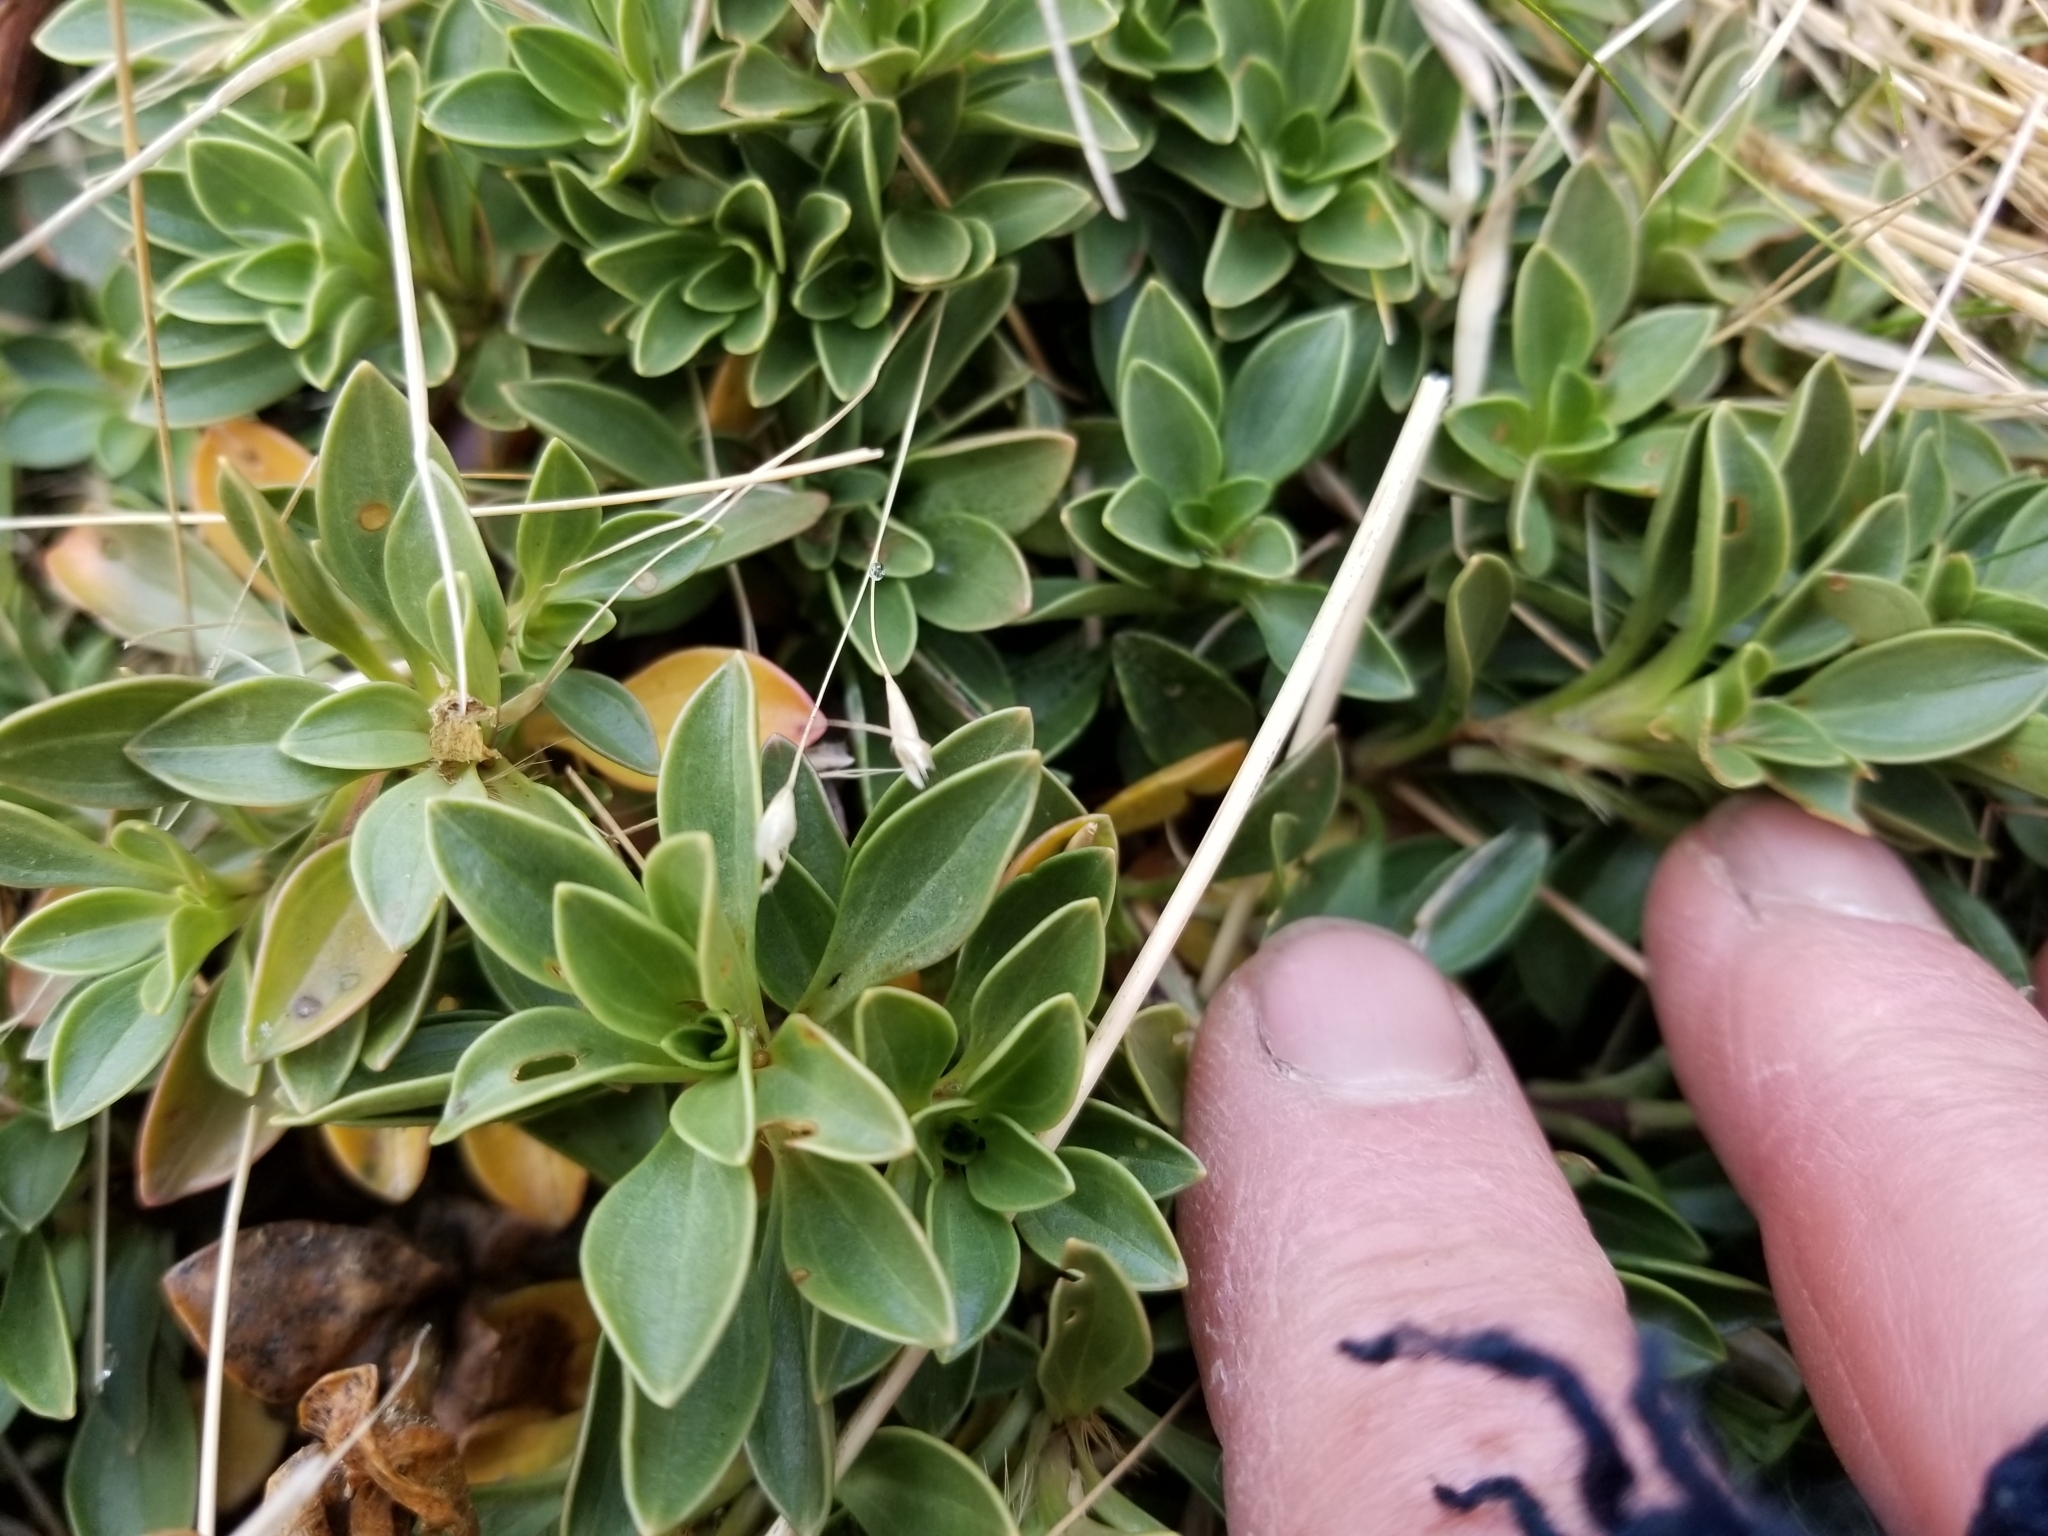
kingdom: Plantae
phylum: Tracheophyta
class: Magnoliopsida
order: Gentianales
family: Rubiaceae
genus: Coprosma
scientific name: Coprosma serrulata
